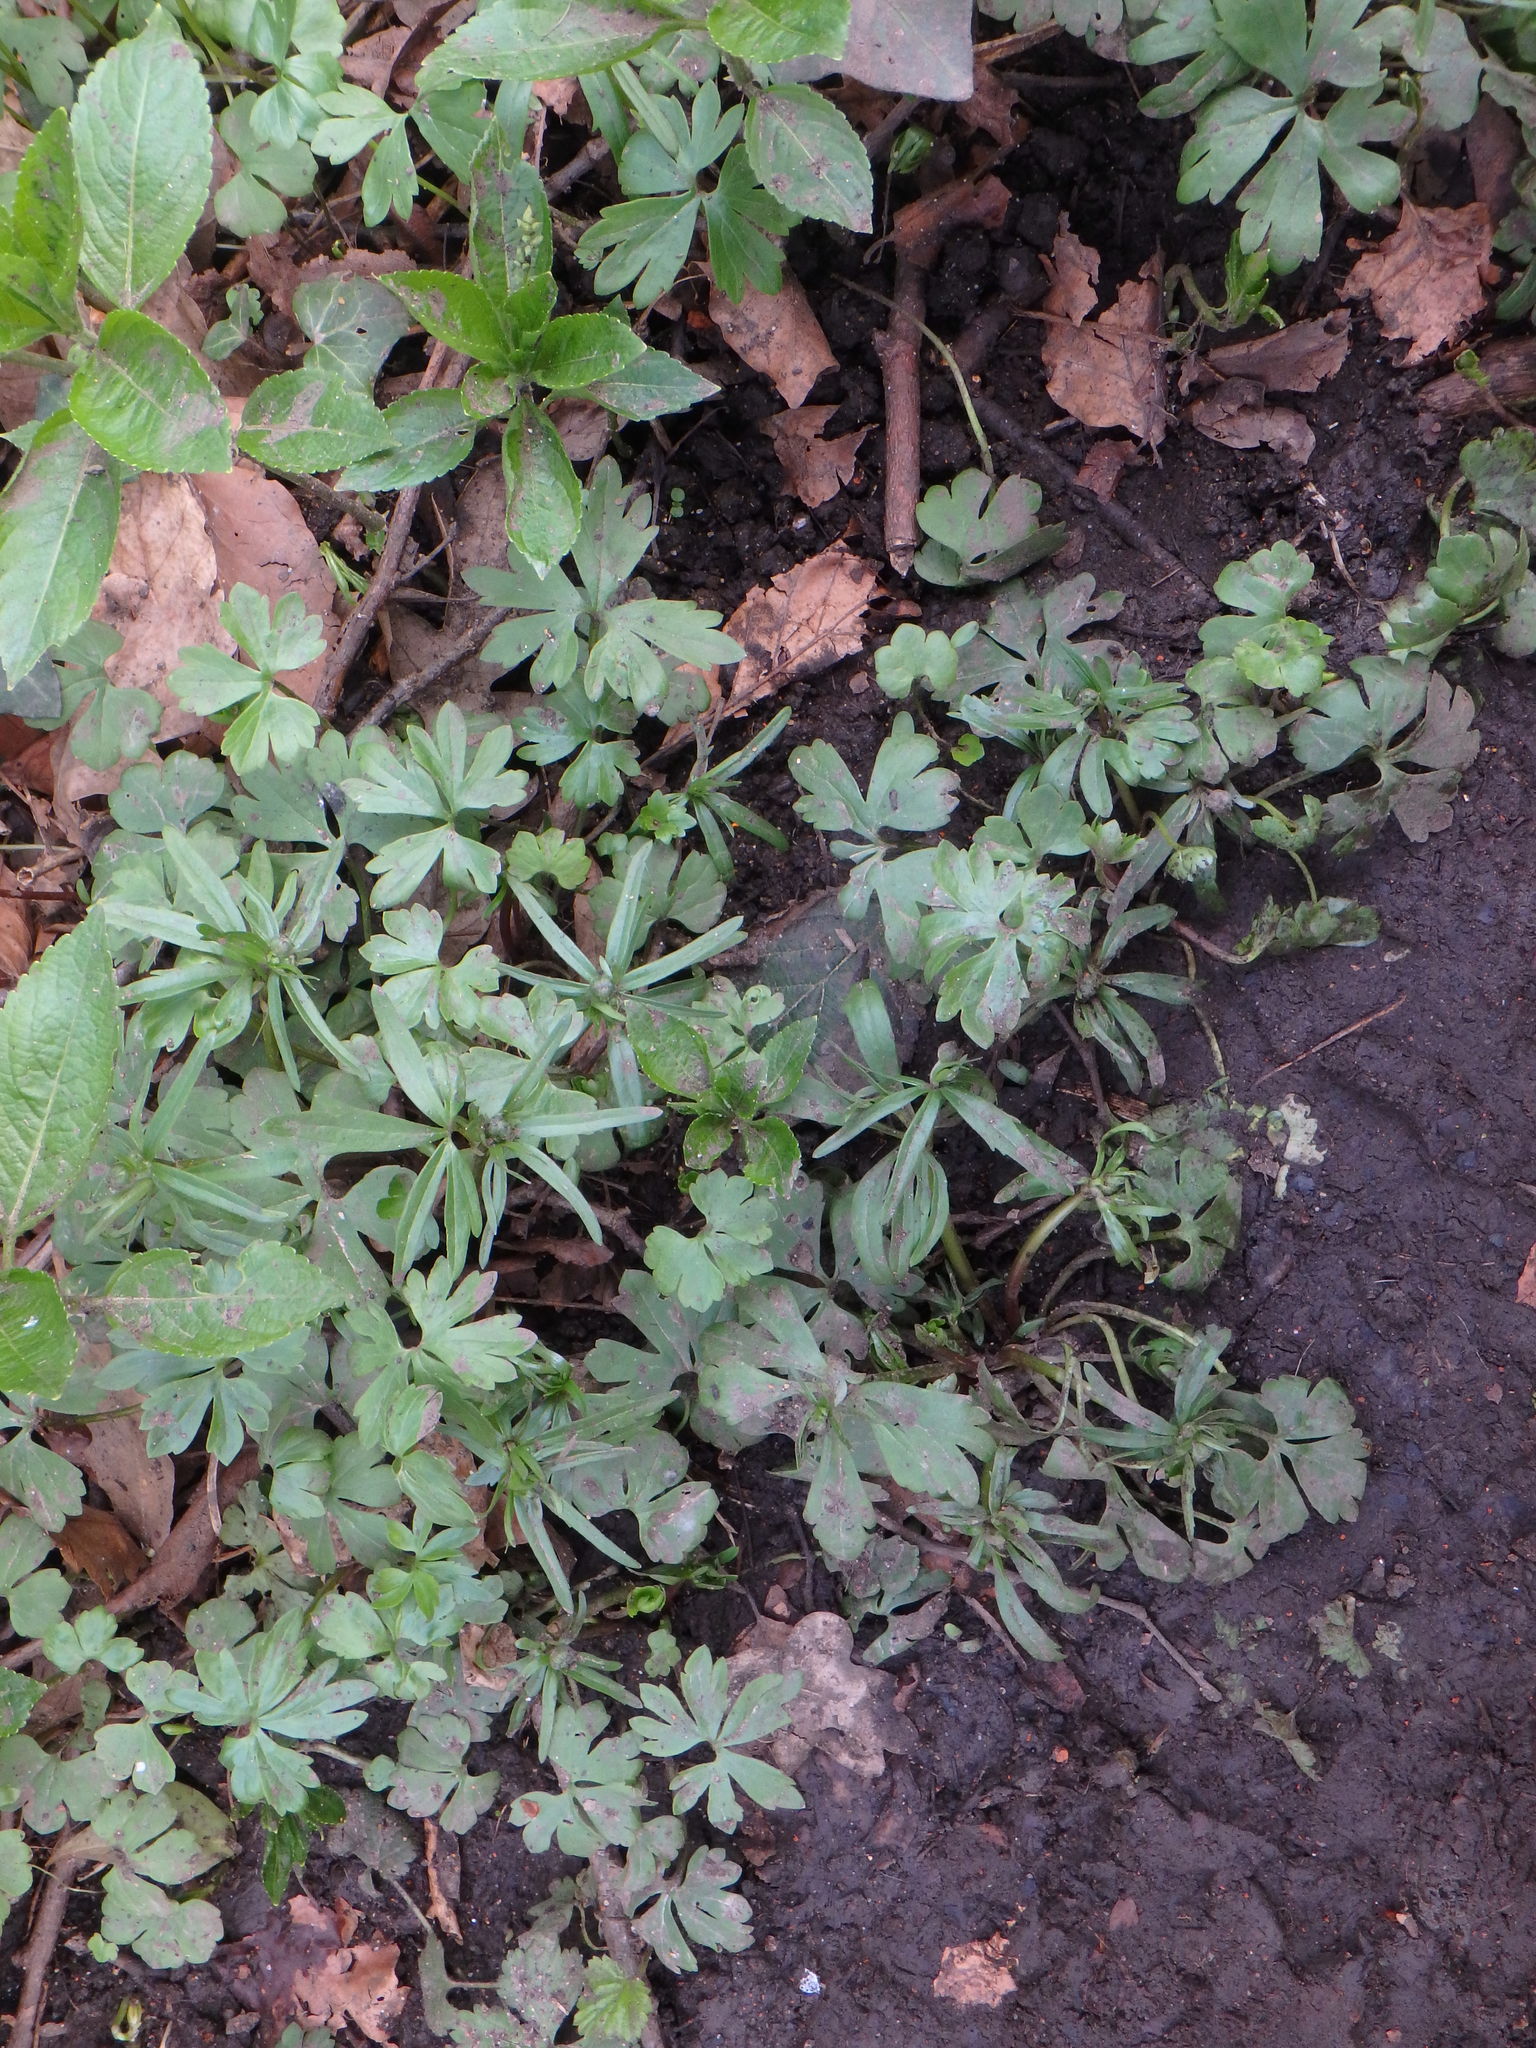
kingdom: Plantae
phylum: Tracheophyta
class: Magnoliopsida
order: Ranunculales
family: Ranunculaceae
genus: Ranunculus
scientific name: Ranunculus auricomus
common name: Goldilocks buttercup
